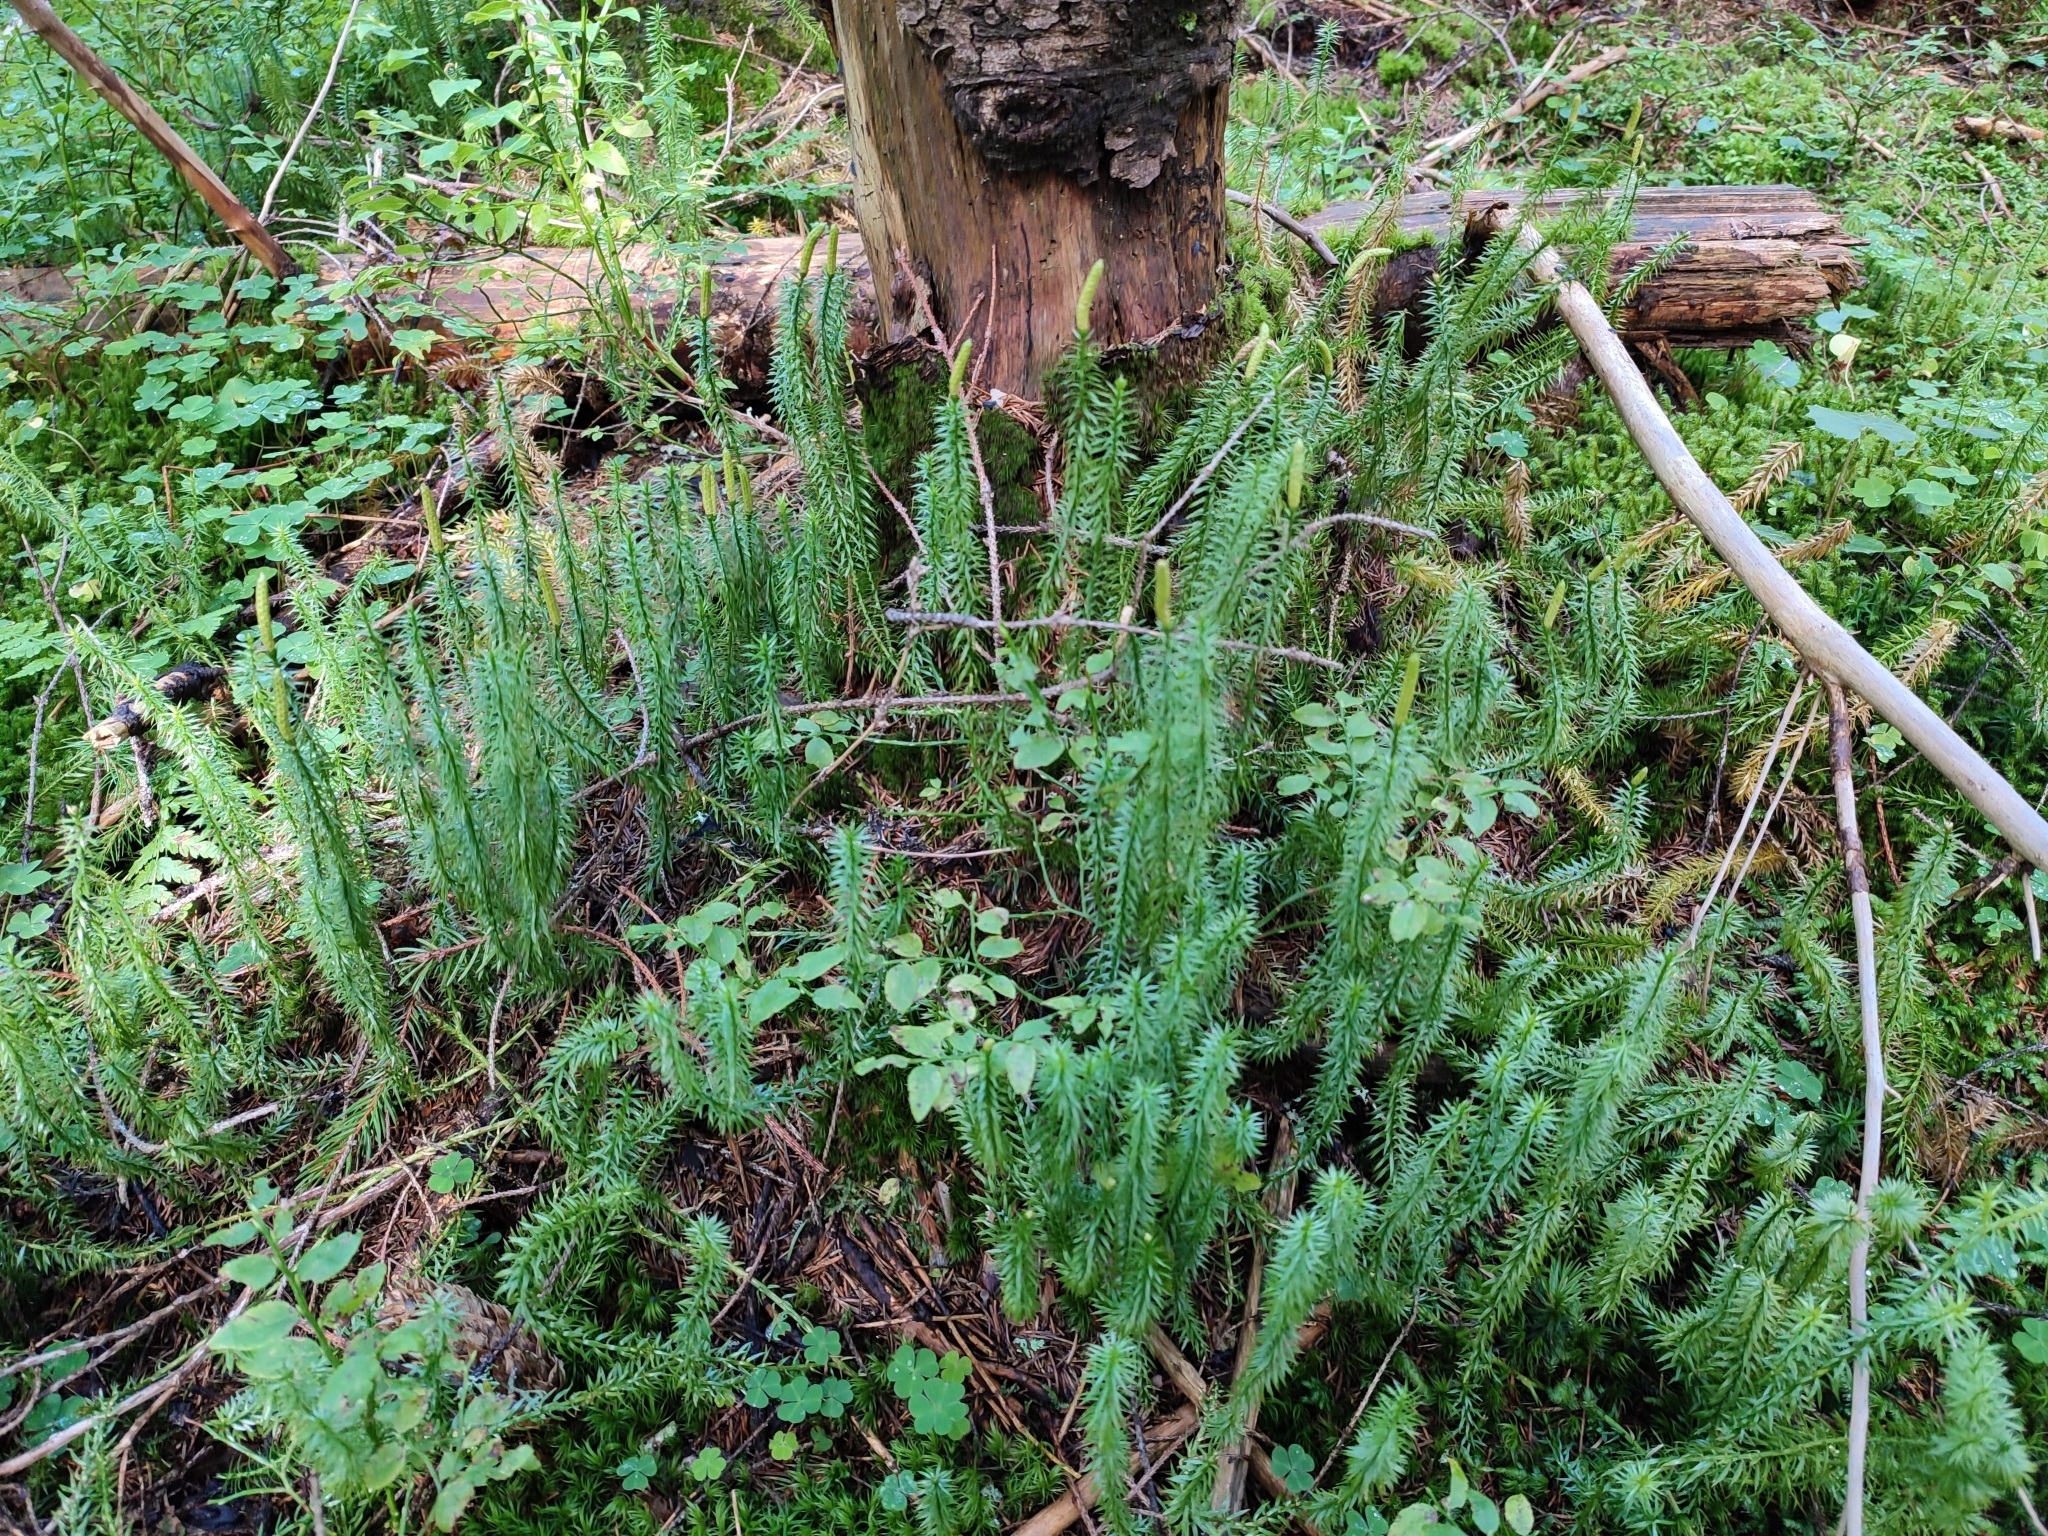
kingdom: Plantae
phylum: Tracheophyta
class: Lycopodiopsida
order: Lycopodiales
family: Lycopodiaceae
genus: Spinulum
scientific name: Spinulum annotinum
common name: Interrupted club-moss
